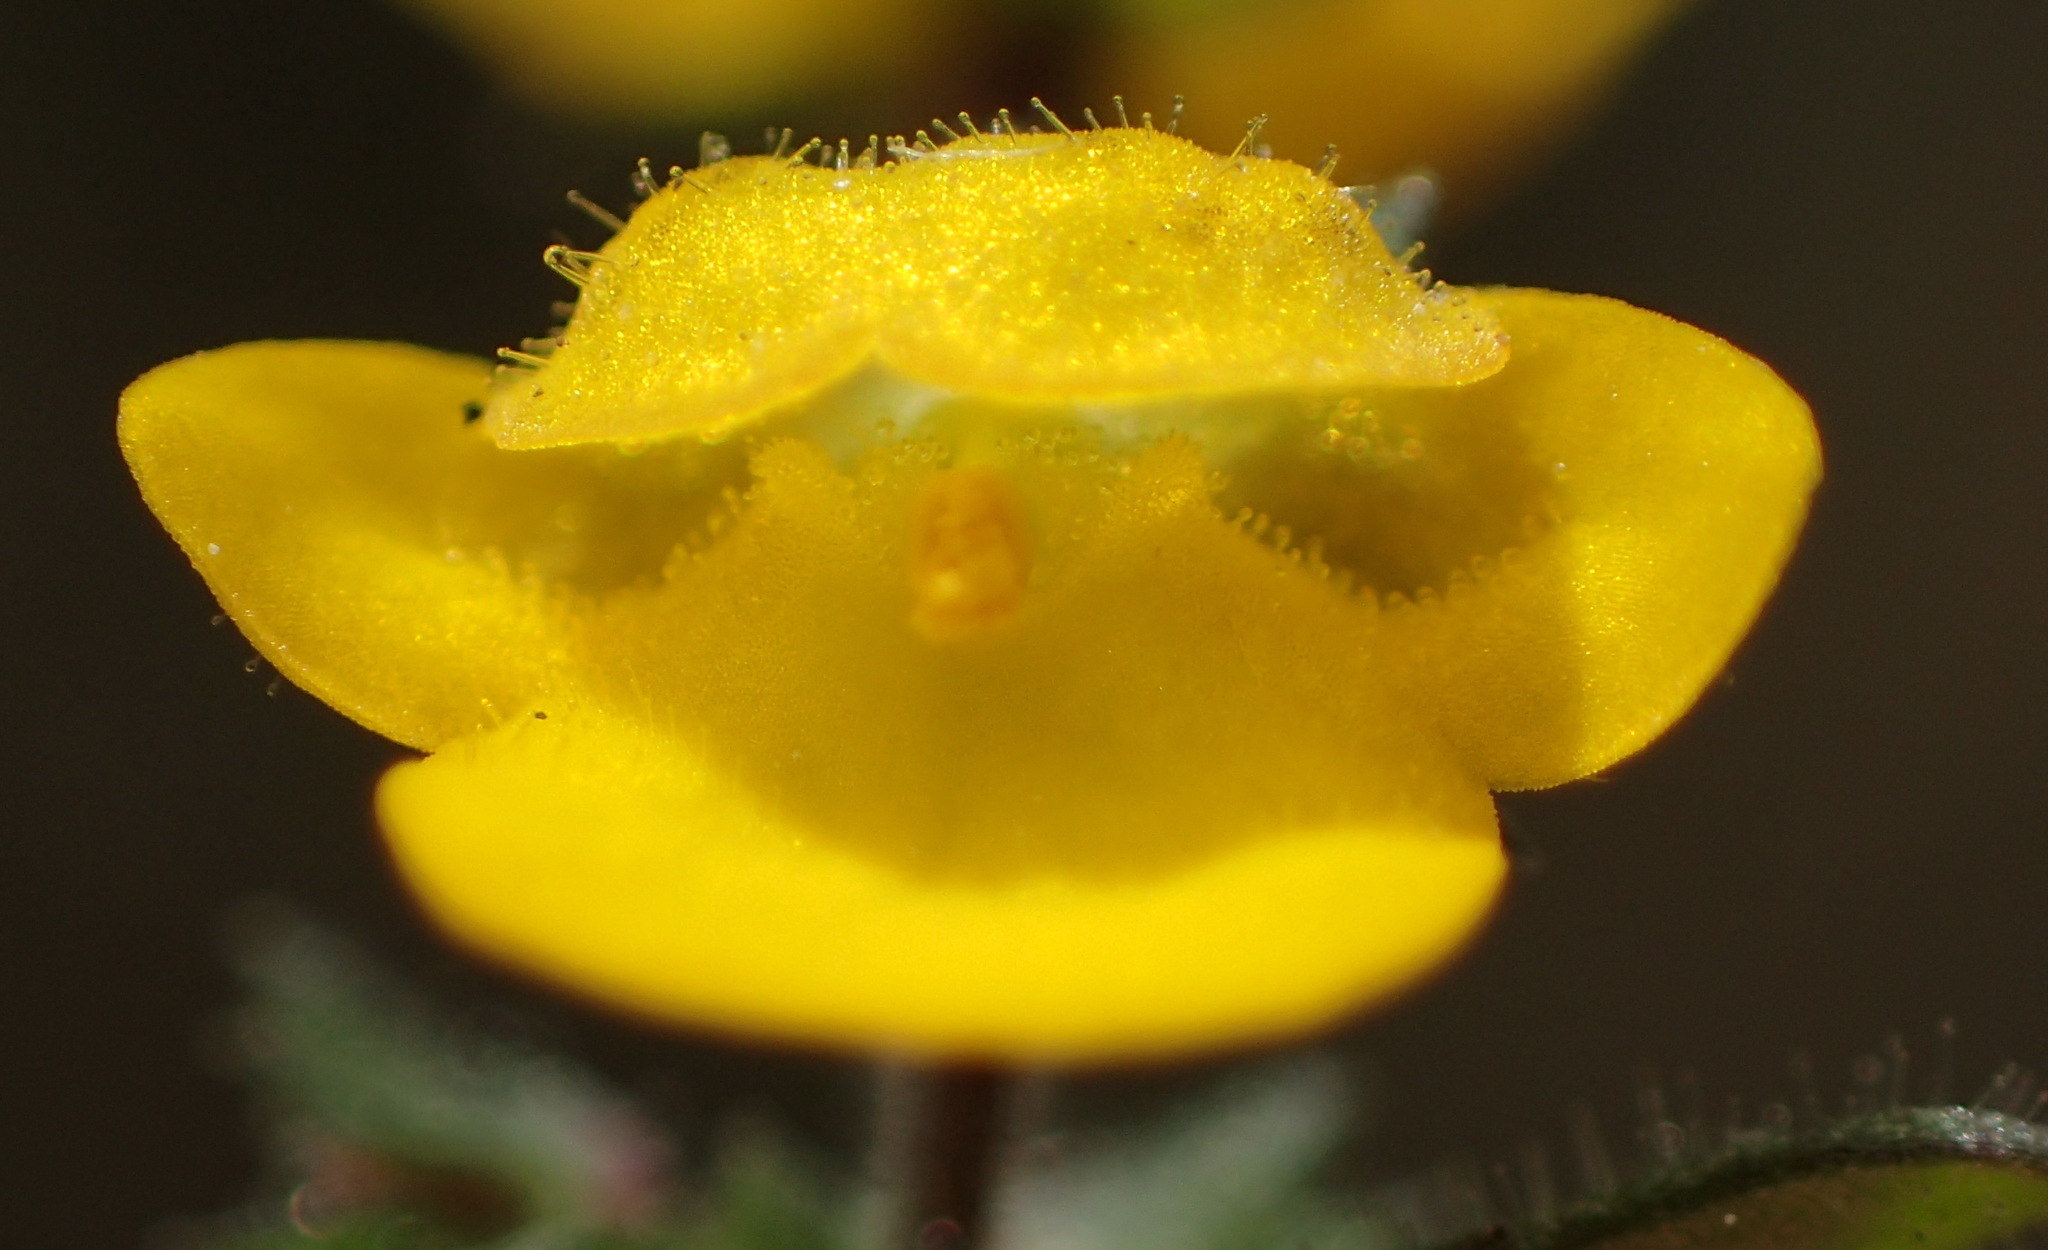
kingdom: Plantae
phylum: Tracheophyta
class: Magnoliopsida
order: Lamiales
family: Scrophulariaceae
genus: Hemimeris
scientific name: Hemimeris racemosa
